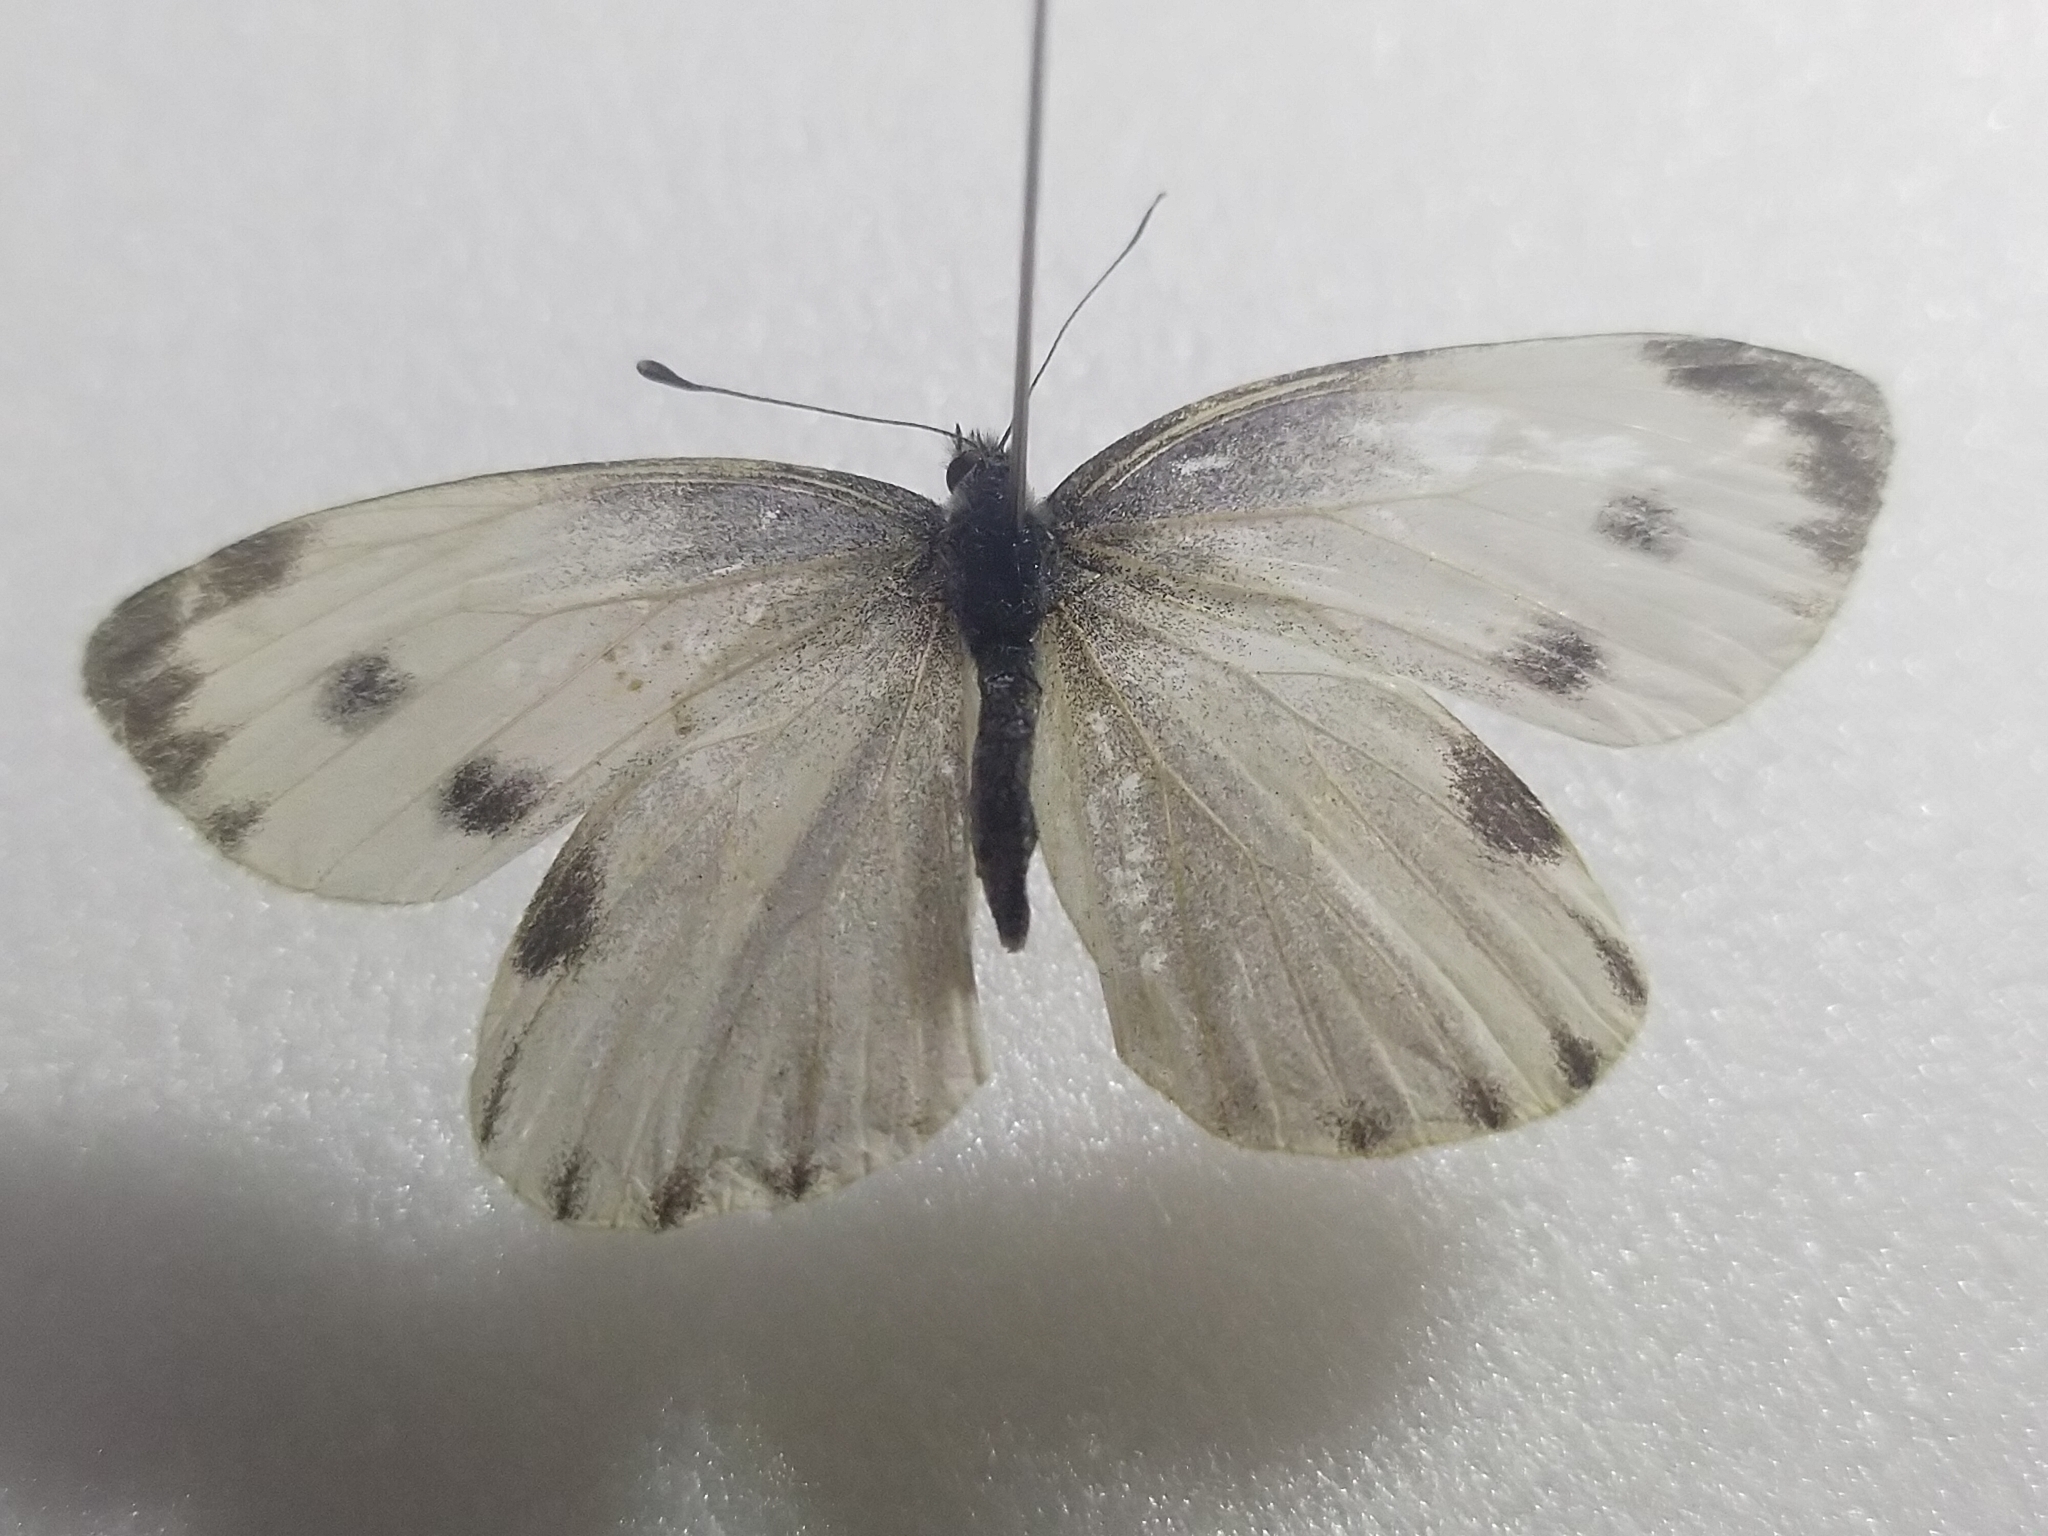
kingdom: Animalia
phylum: Arthropoda
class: Insecta
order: Lepidoptera
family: Pieridae
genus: Pieris
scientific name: Pieris canidia
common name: Indian cabbage white
